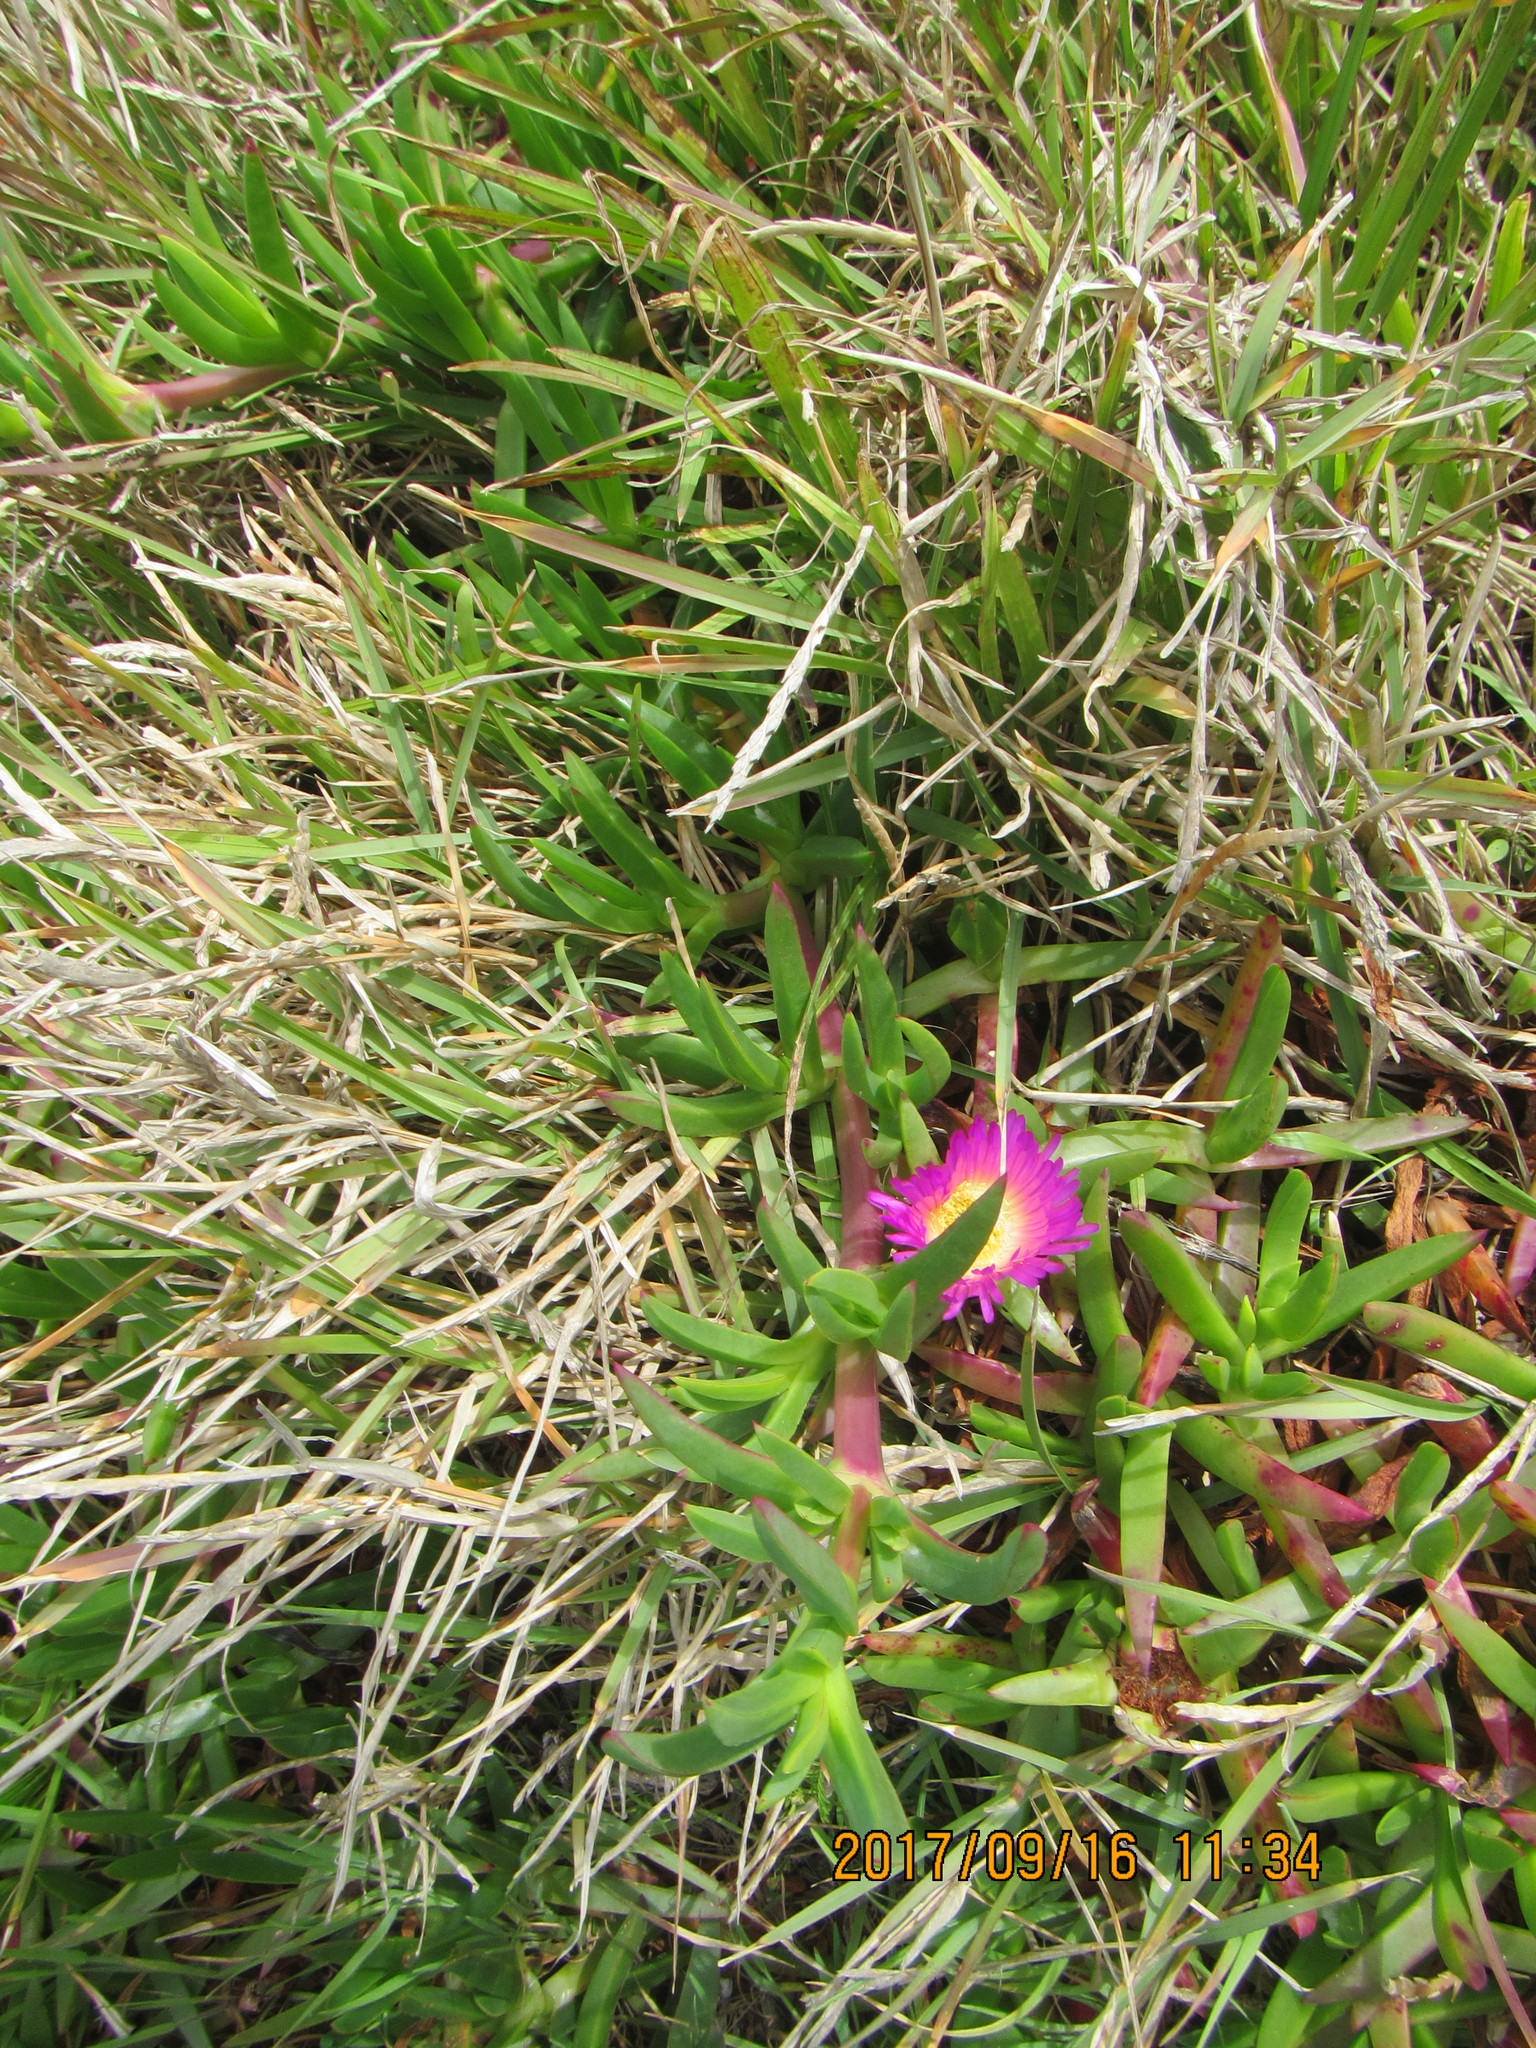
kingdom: Plantae
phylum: Tracheophyta
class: Magnoliopsida
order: Caryophyllales
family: Aizoaceae
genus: Carpobrotus
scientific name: Carpobrotus chilensis
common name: Sea fig
